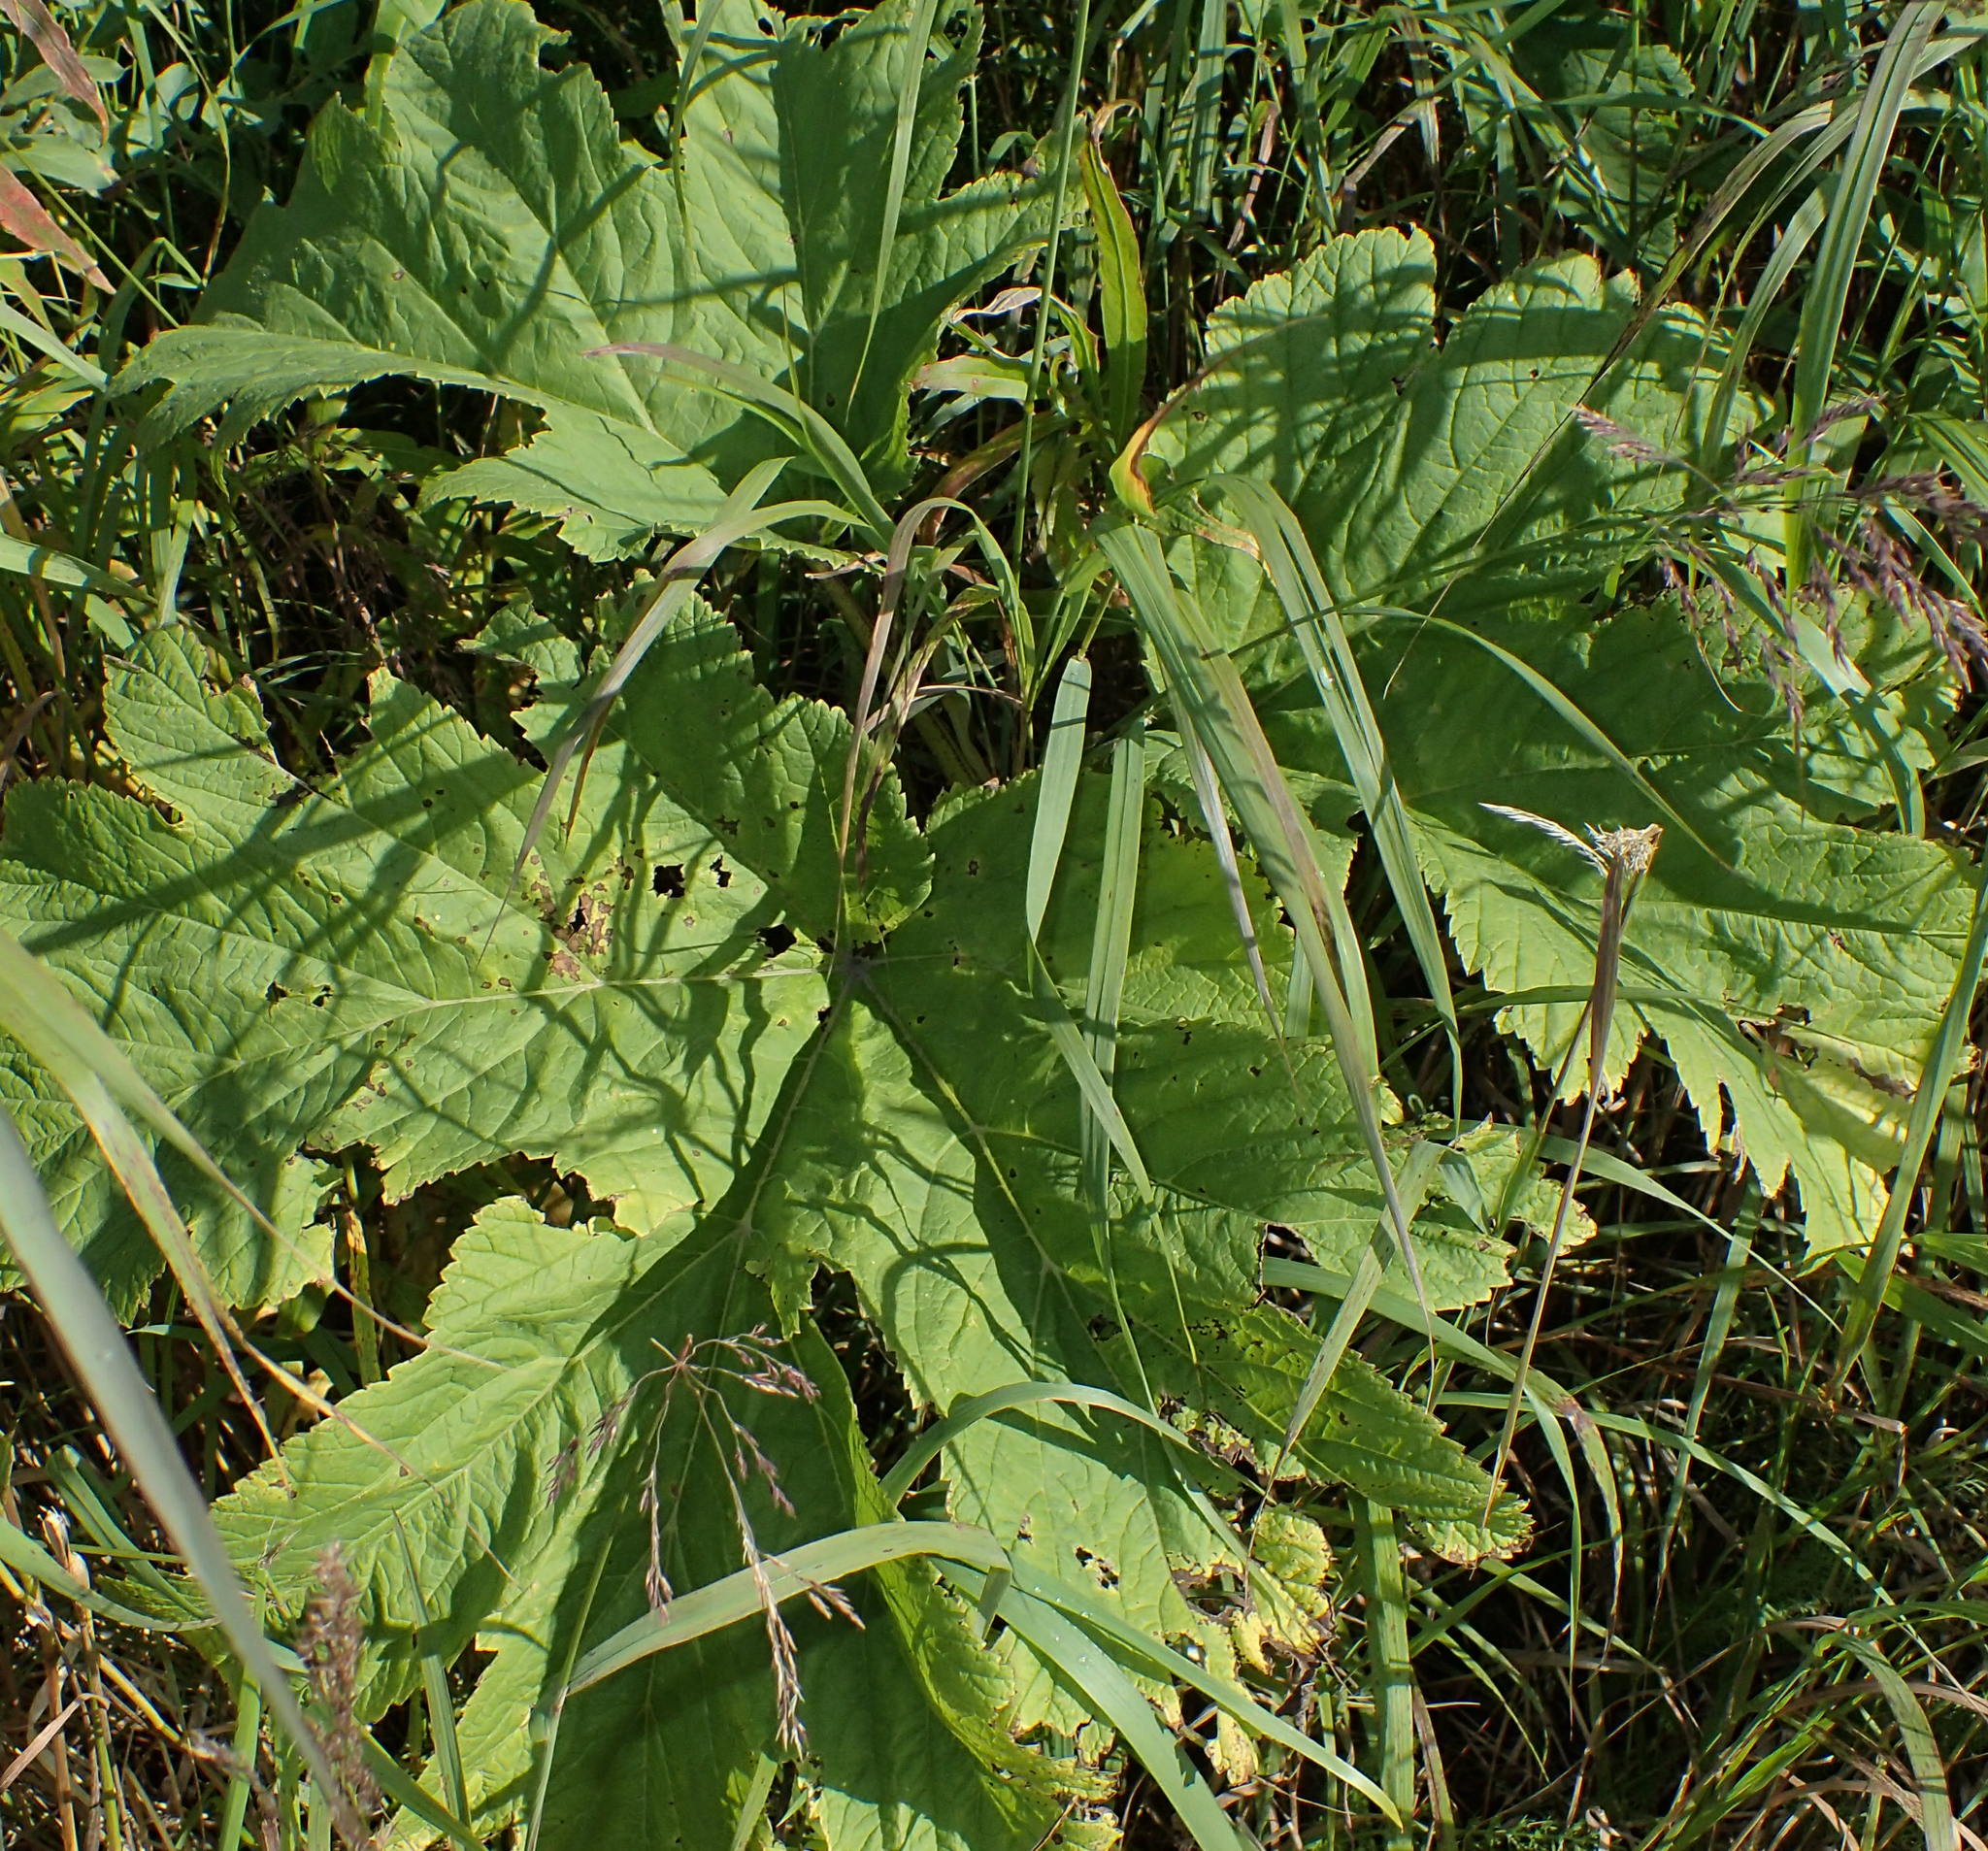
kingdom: Plantae
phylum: Tracheophyta
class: Magnoliopsida
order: Apiales
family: Apiaceae
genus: Heracleum
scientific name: Heracleum maximum
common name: American cow parsnip
